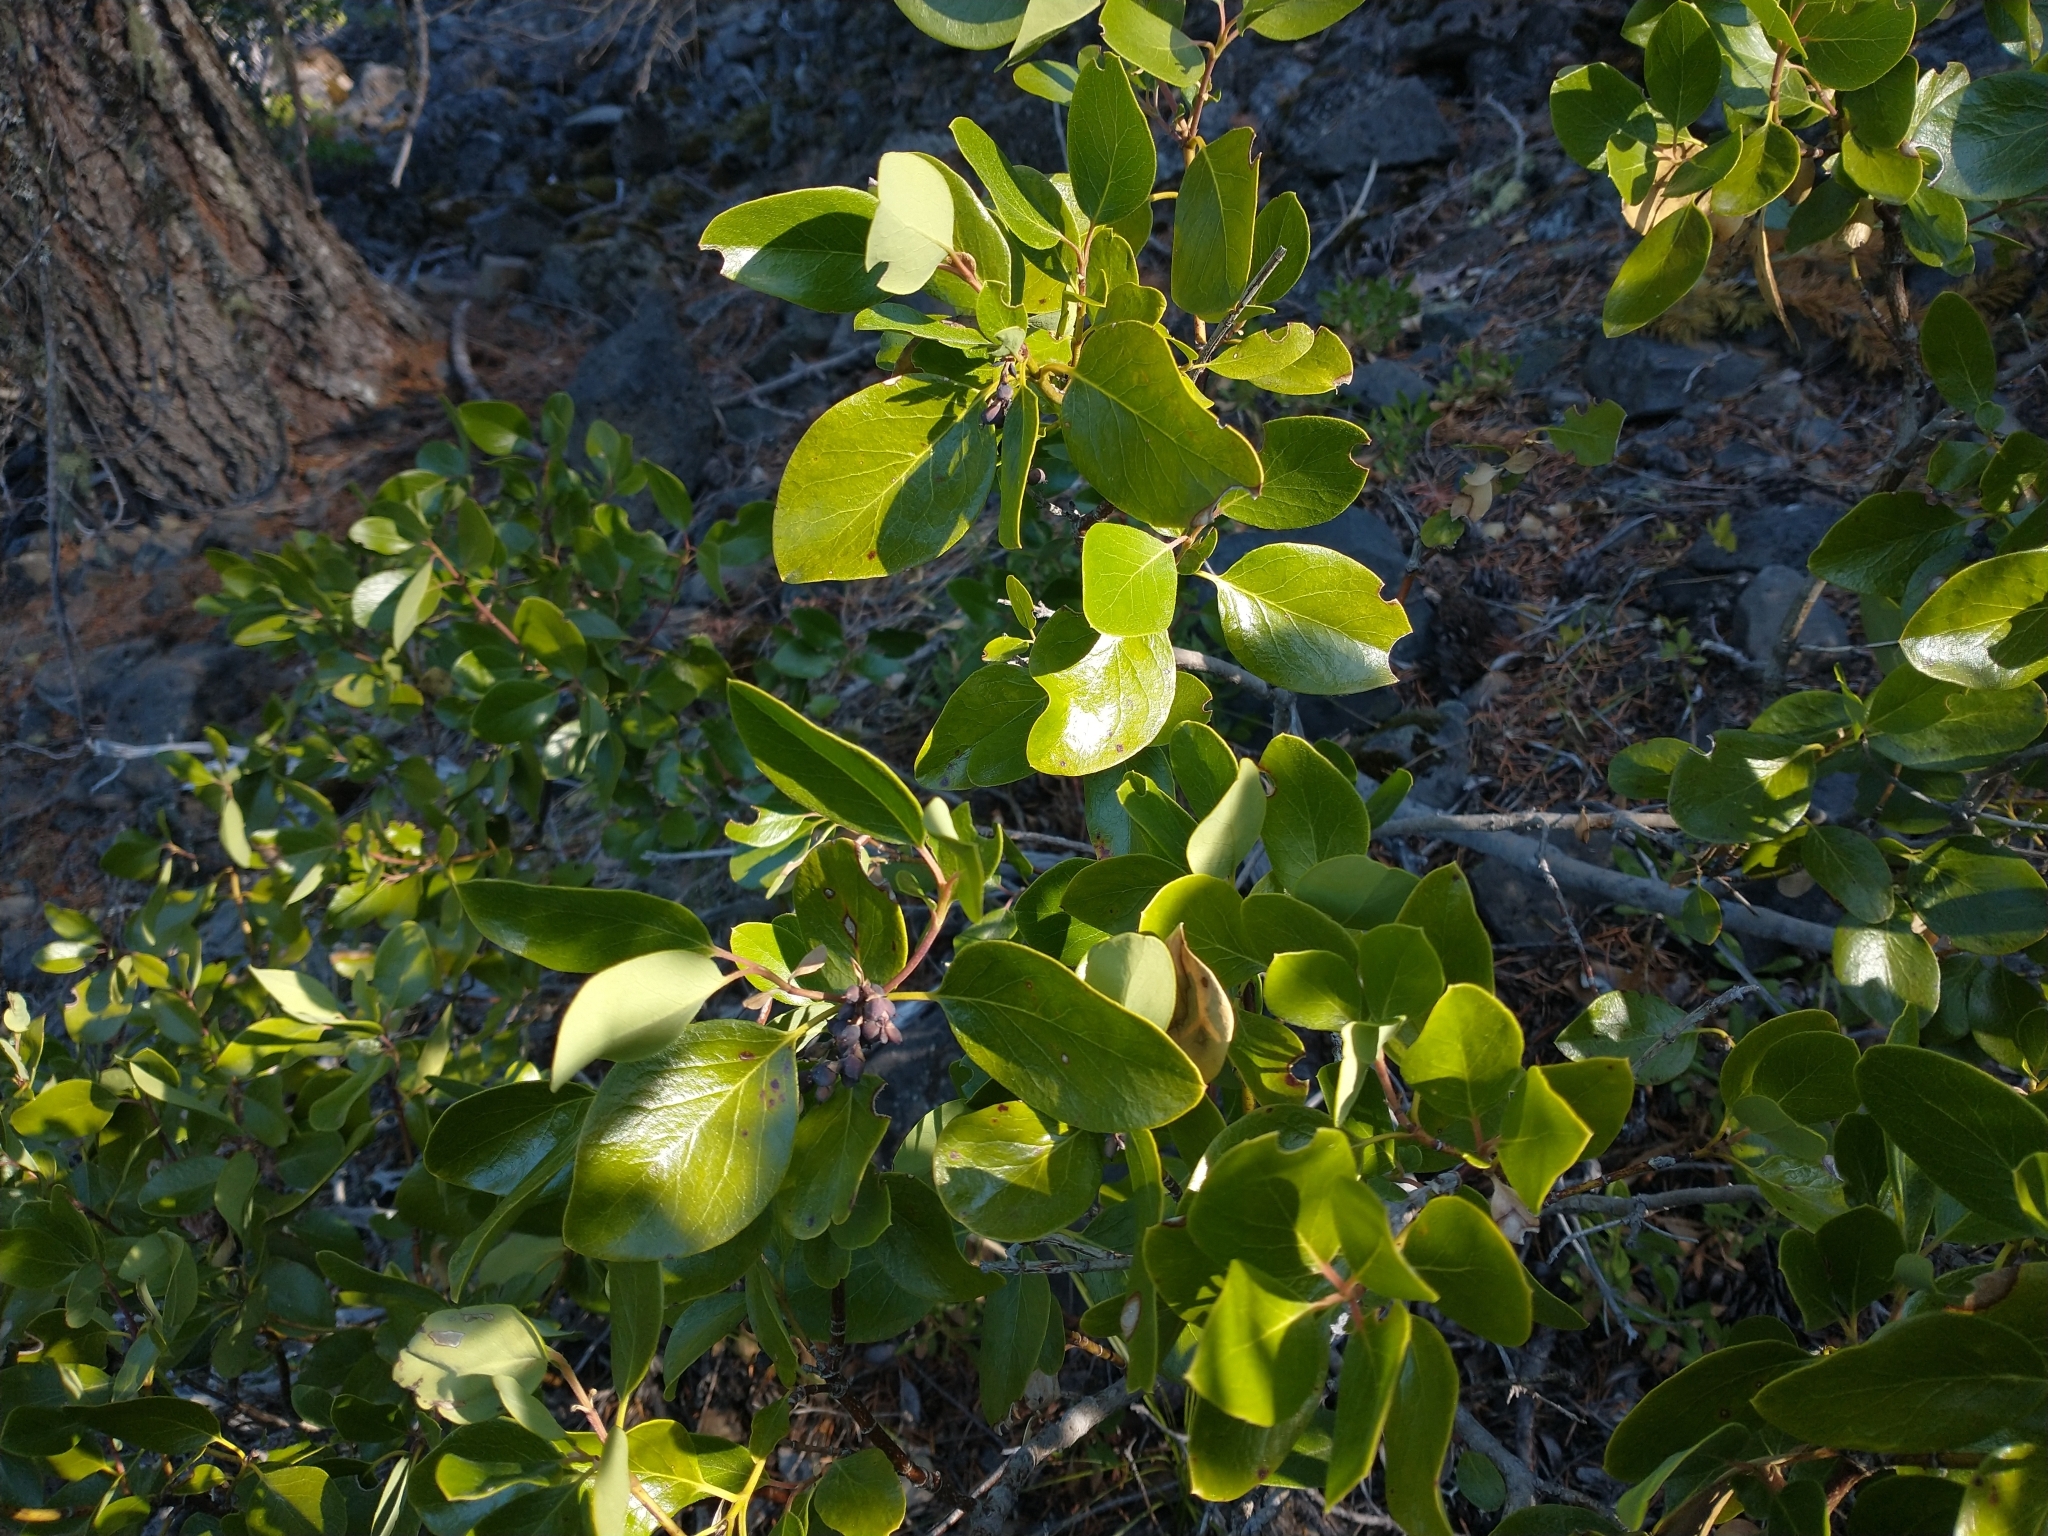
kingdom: Plantae
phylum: Tracheophyta
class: Magnoliopsida
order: Garryales
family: Garryaceae
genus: Garrya
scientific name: Garrya fremontii
